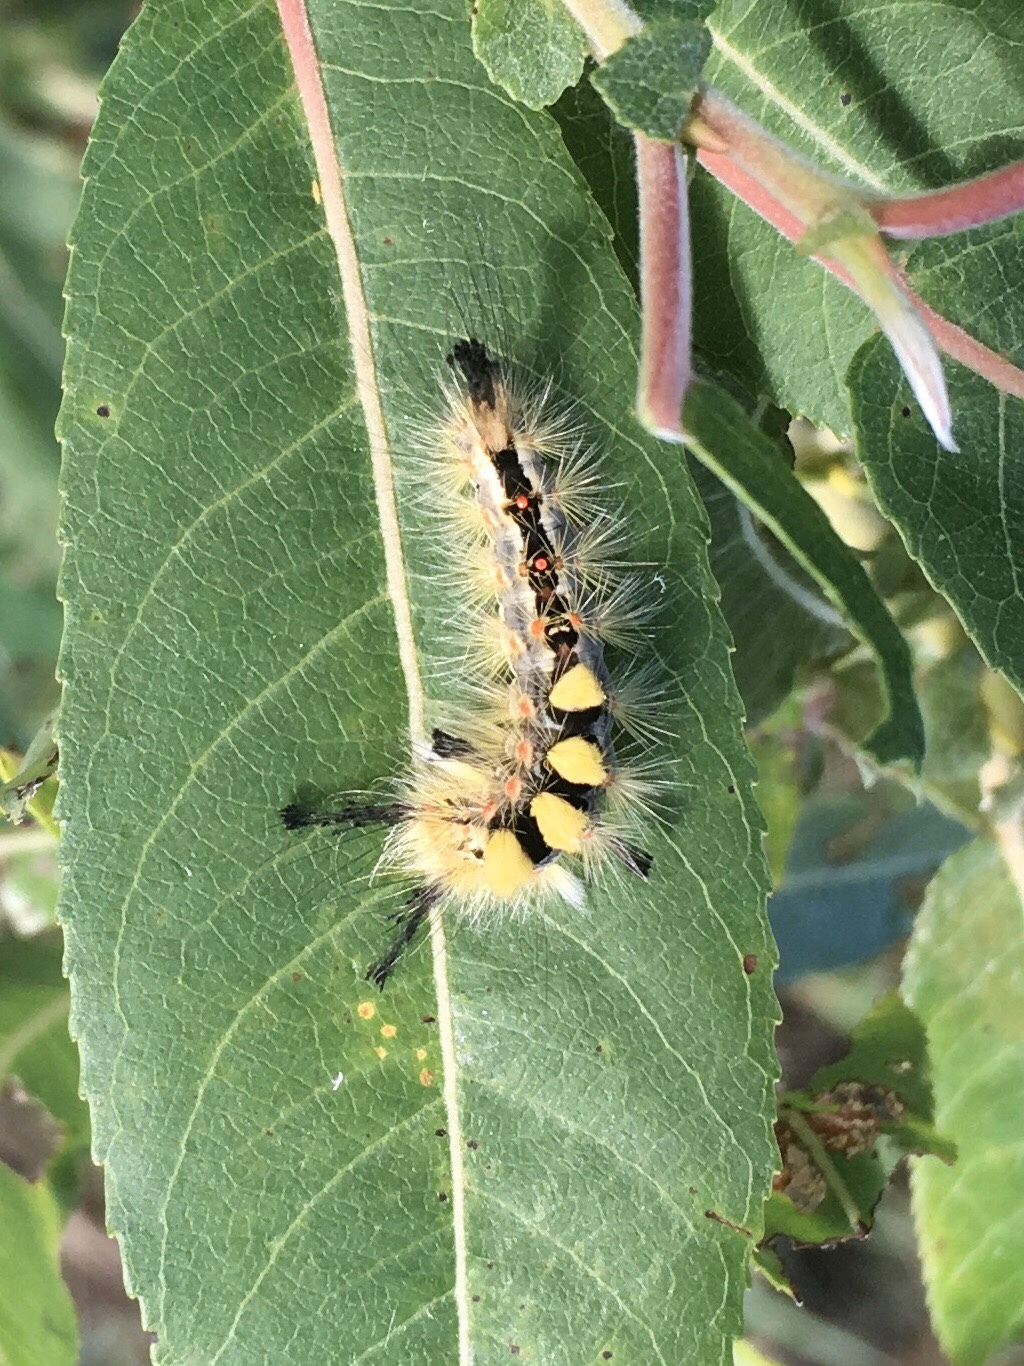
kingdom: Animalia
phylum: Arthropoda
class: Insecta
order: Lepidoptera
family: Erebidae
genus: Orgyia
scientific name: Orgyia antiqua
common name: Vapourer
